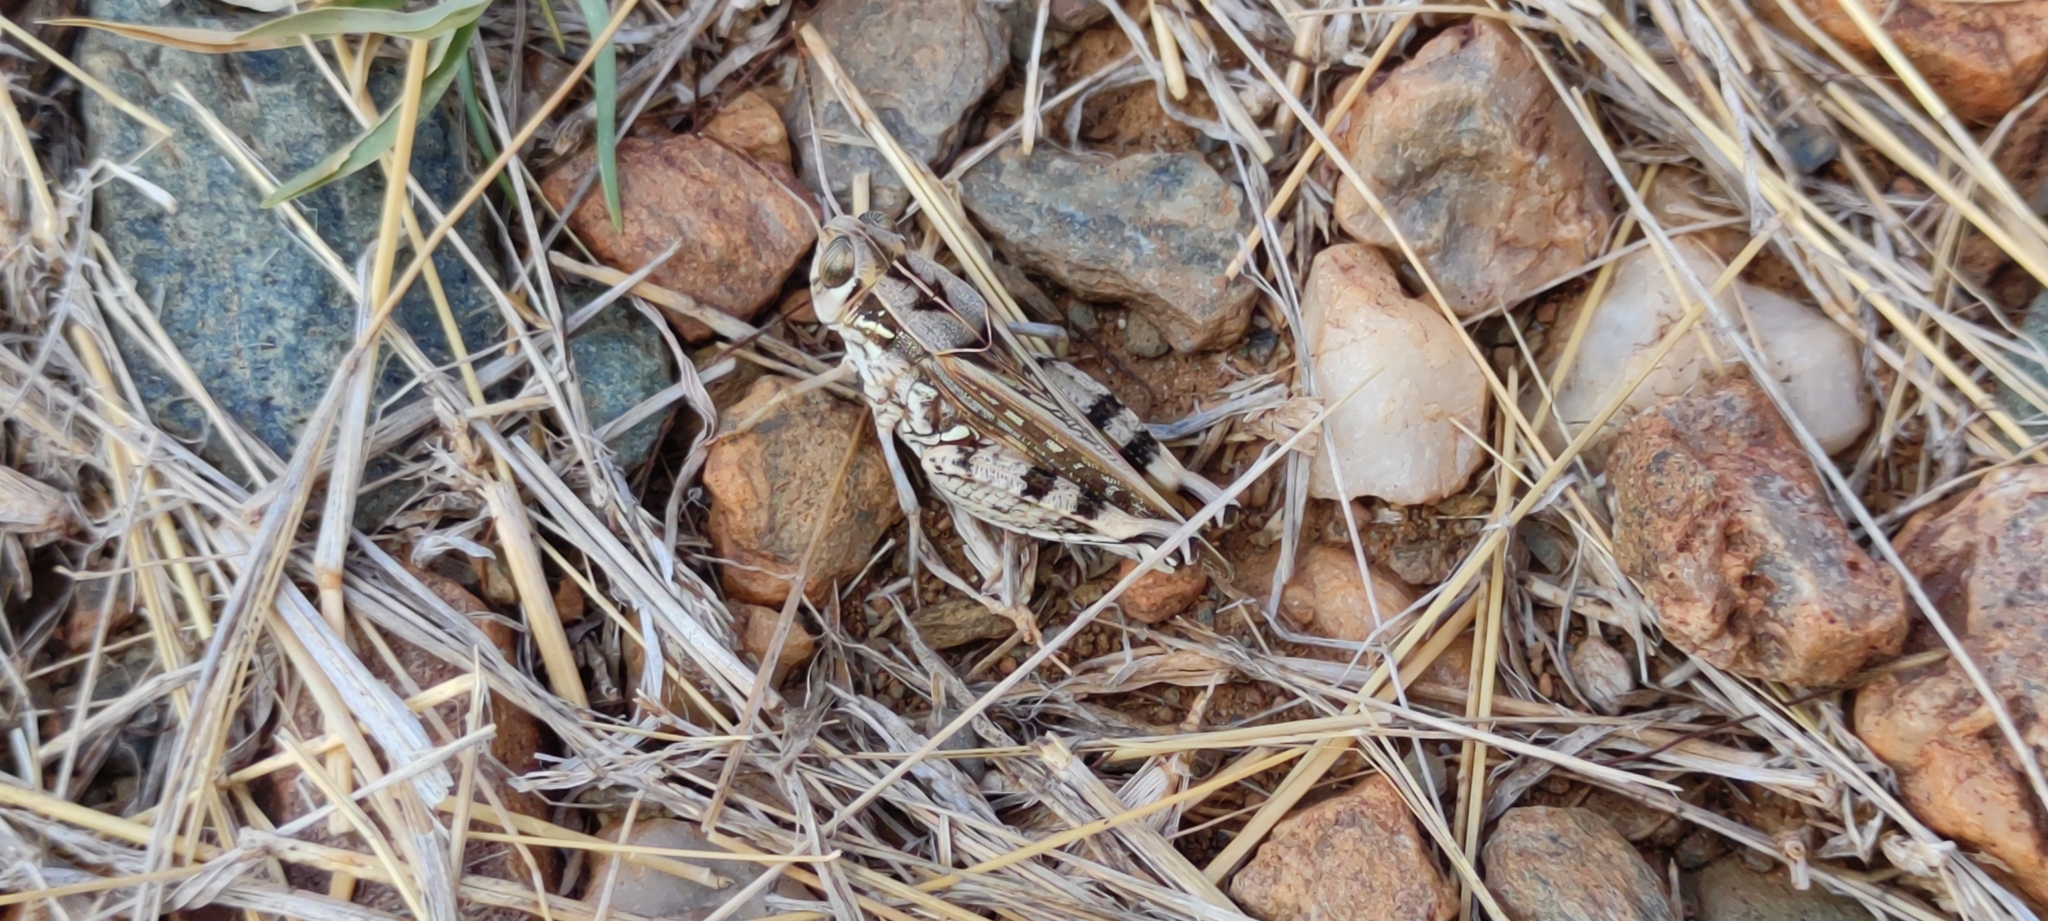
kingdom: Animalia
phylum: Arthropoda
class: Insecta
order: Orthoptera
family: Acrididae
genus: Acorypha
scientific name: Acorypha glaucopsis
